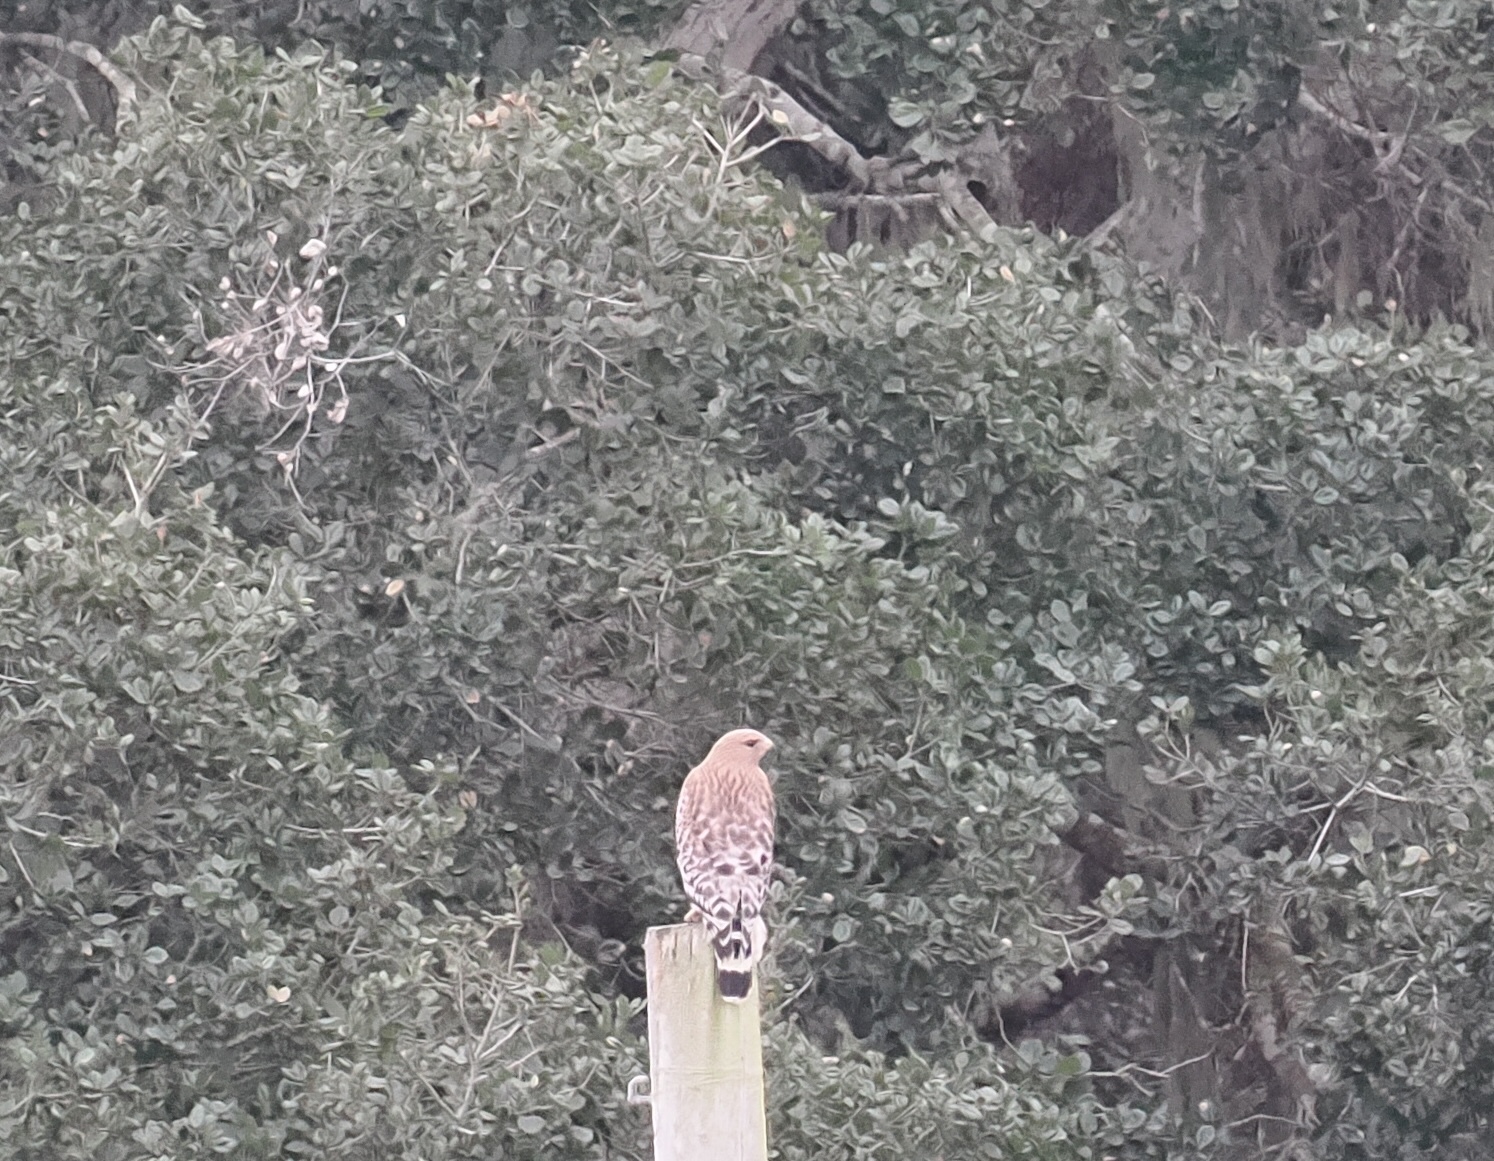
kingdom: Animalia
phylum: Chordata
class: Aves
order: Accipitriformes
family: Accipitridae
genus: Buteo
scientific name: Buteo lineatus
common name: Red-shouldered hawk
